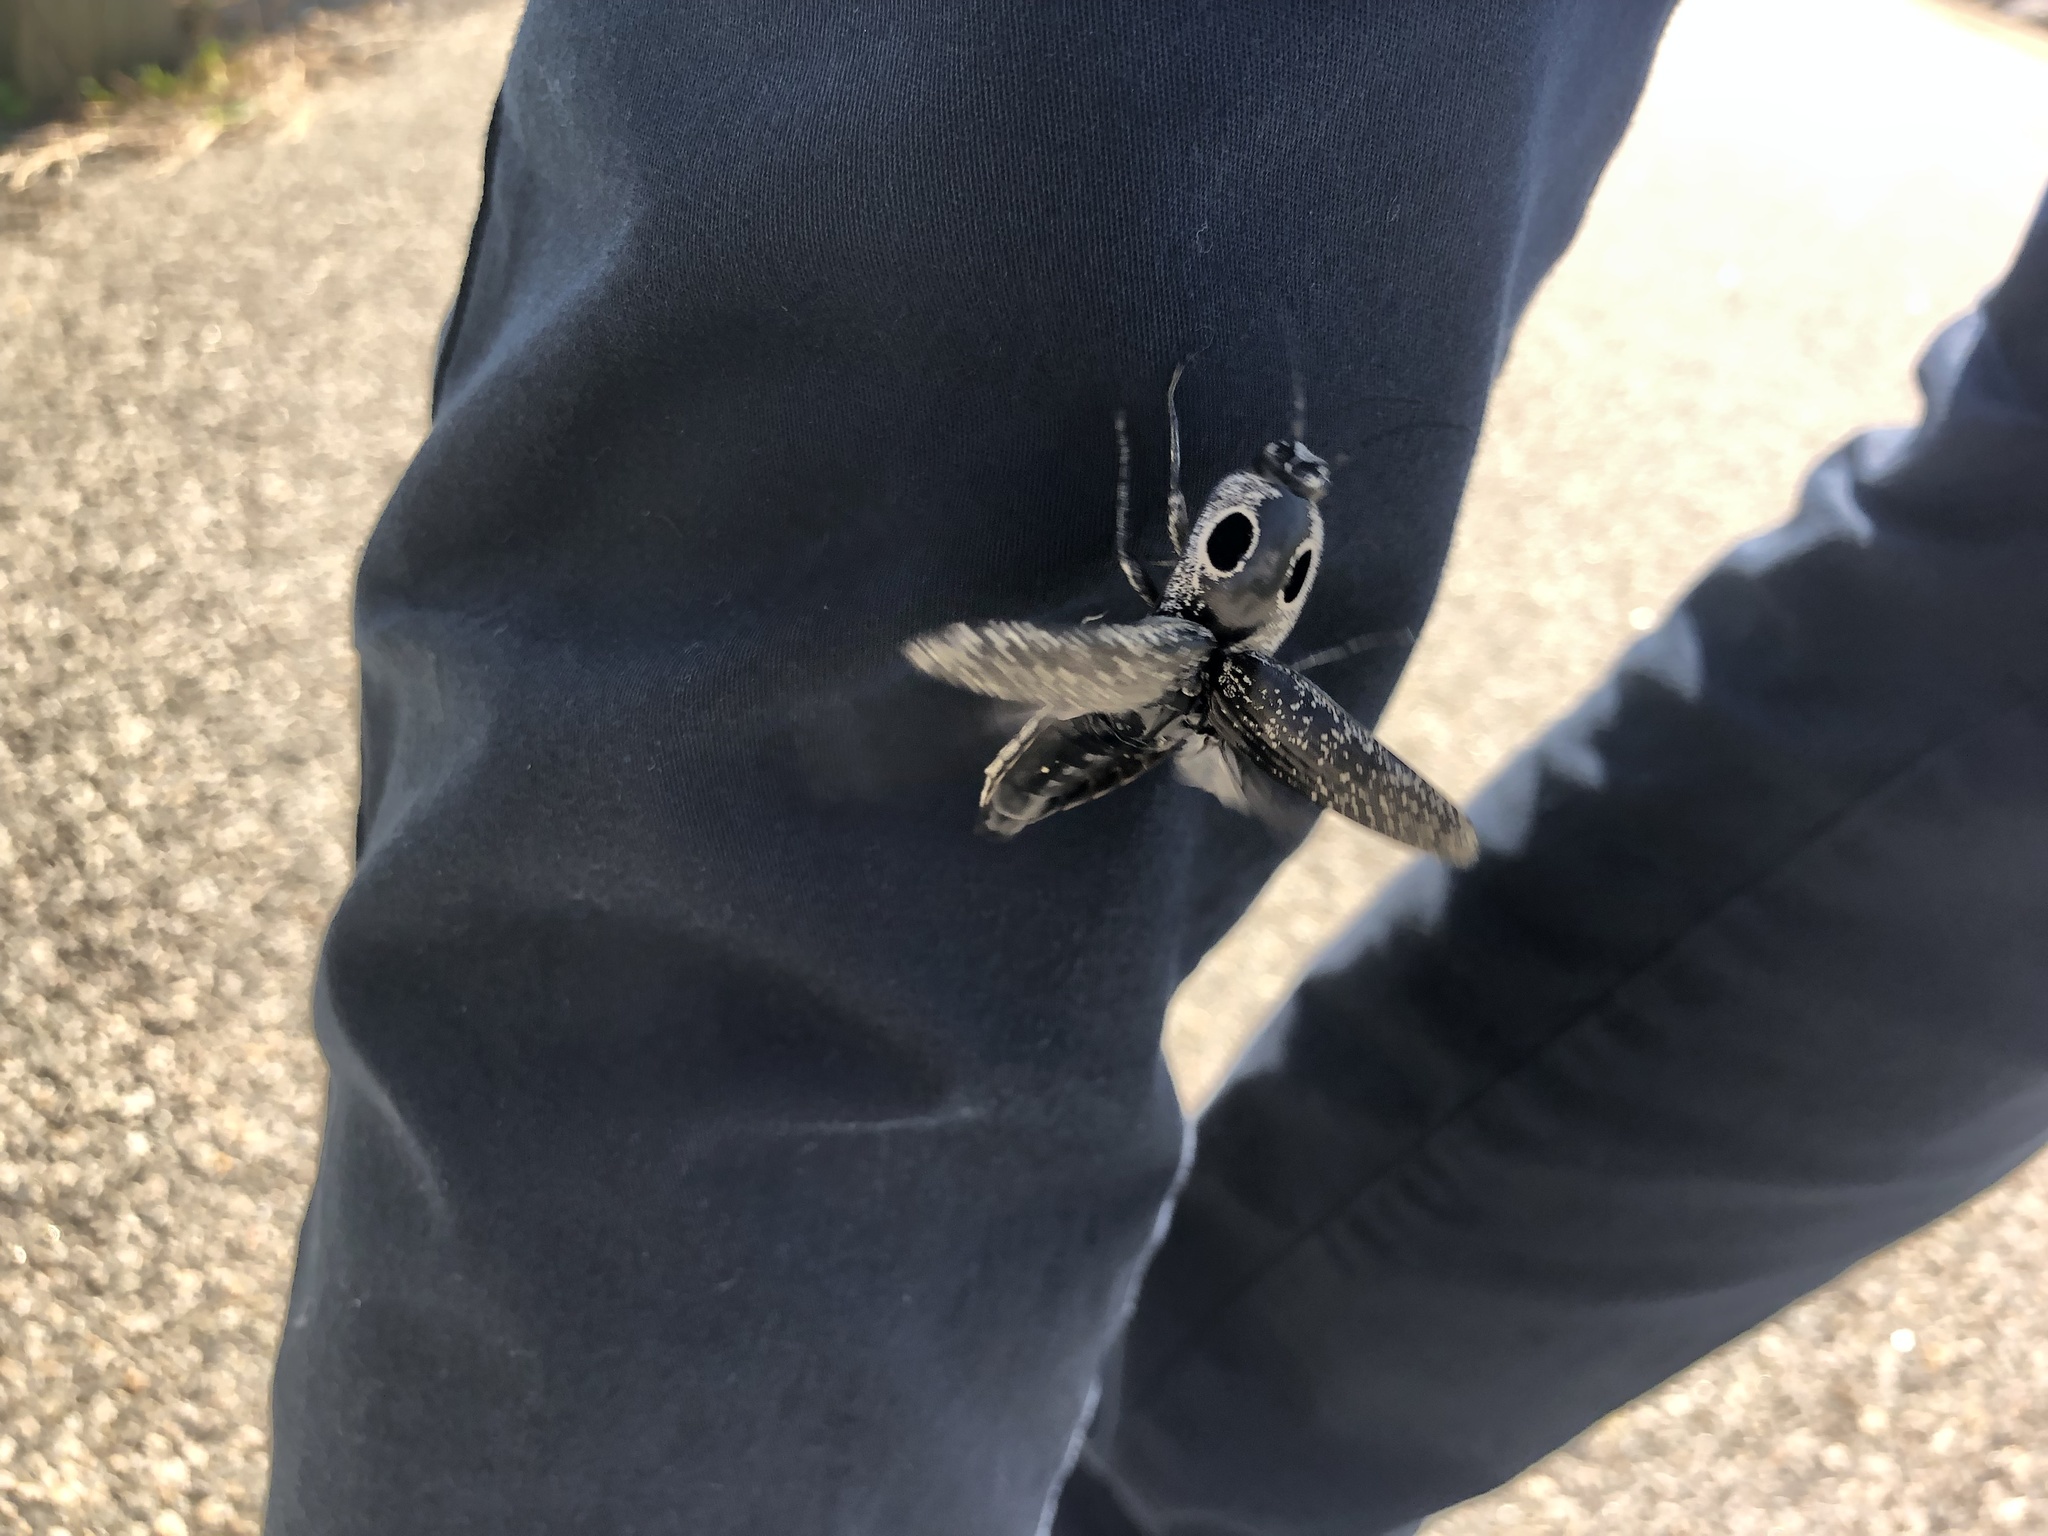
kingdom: Animalia
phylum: Arthropoda
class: Insecta
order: Coleoptera
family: Elateridae
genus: Alaus
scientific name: Alaus oculatus
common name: Eastern eyed click beetle
